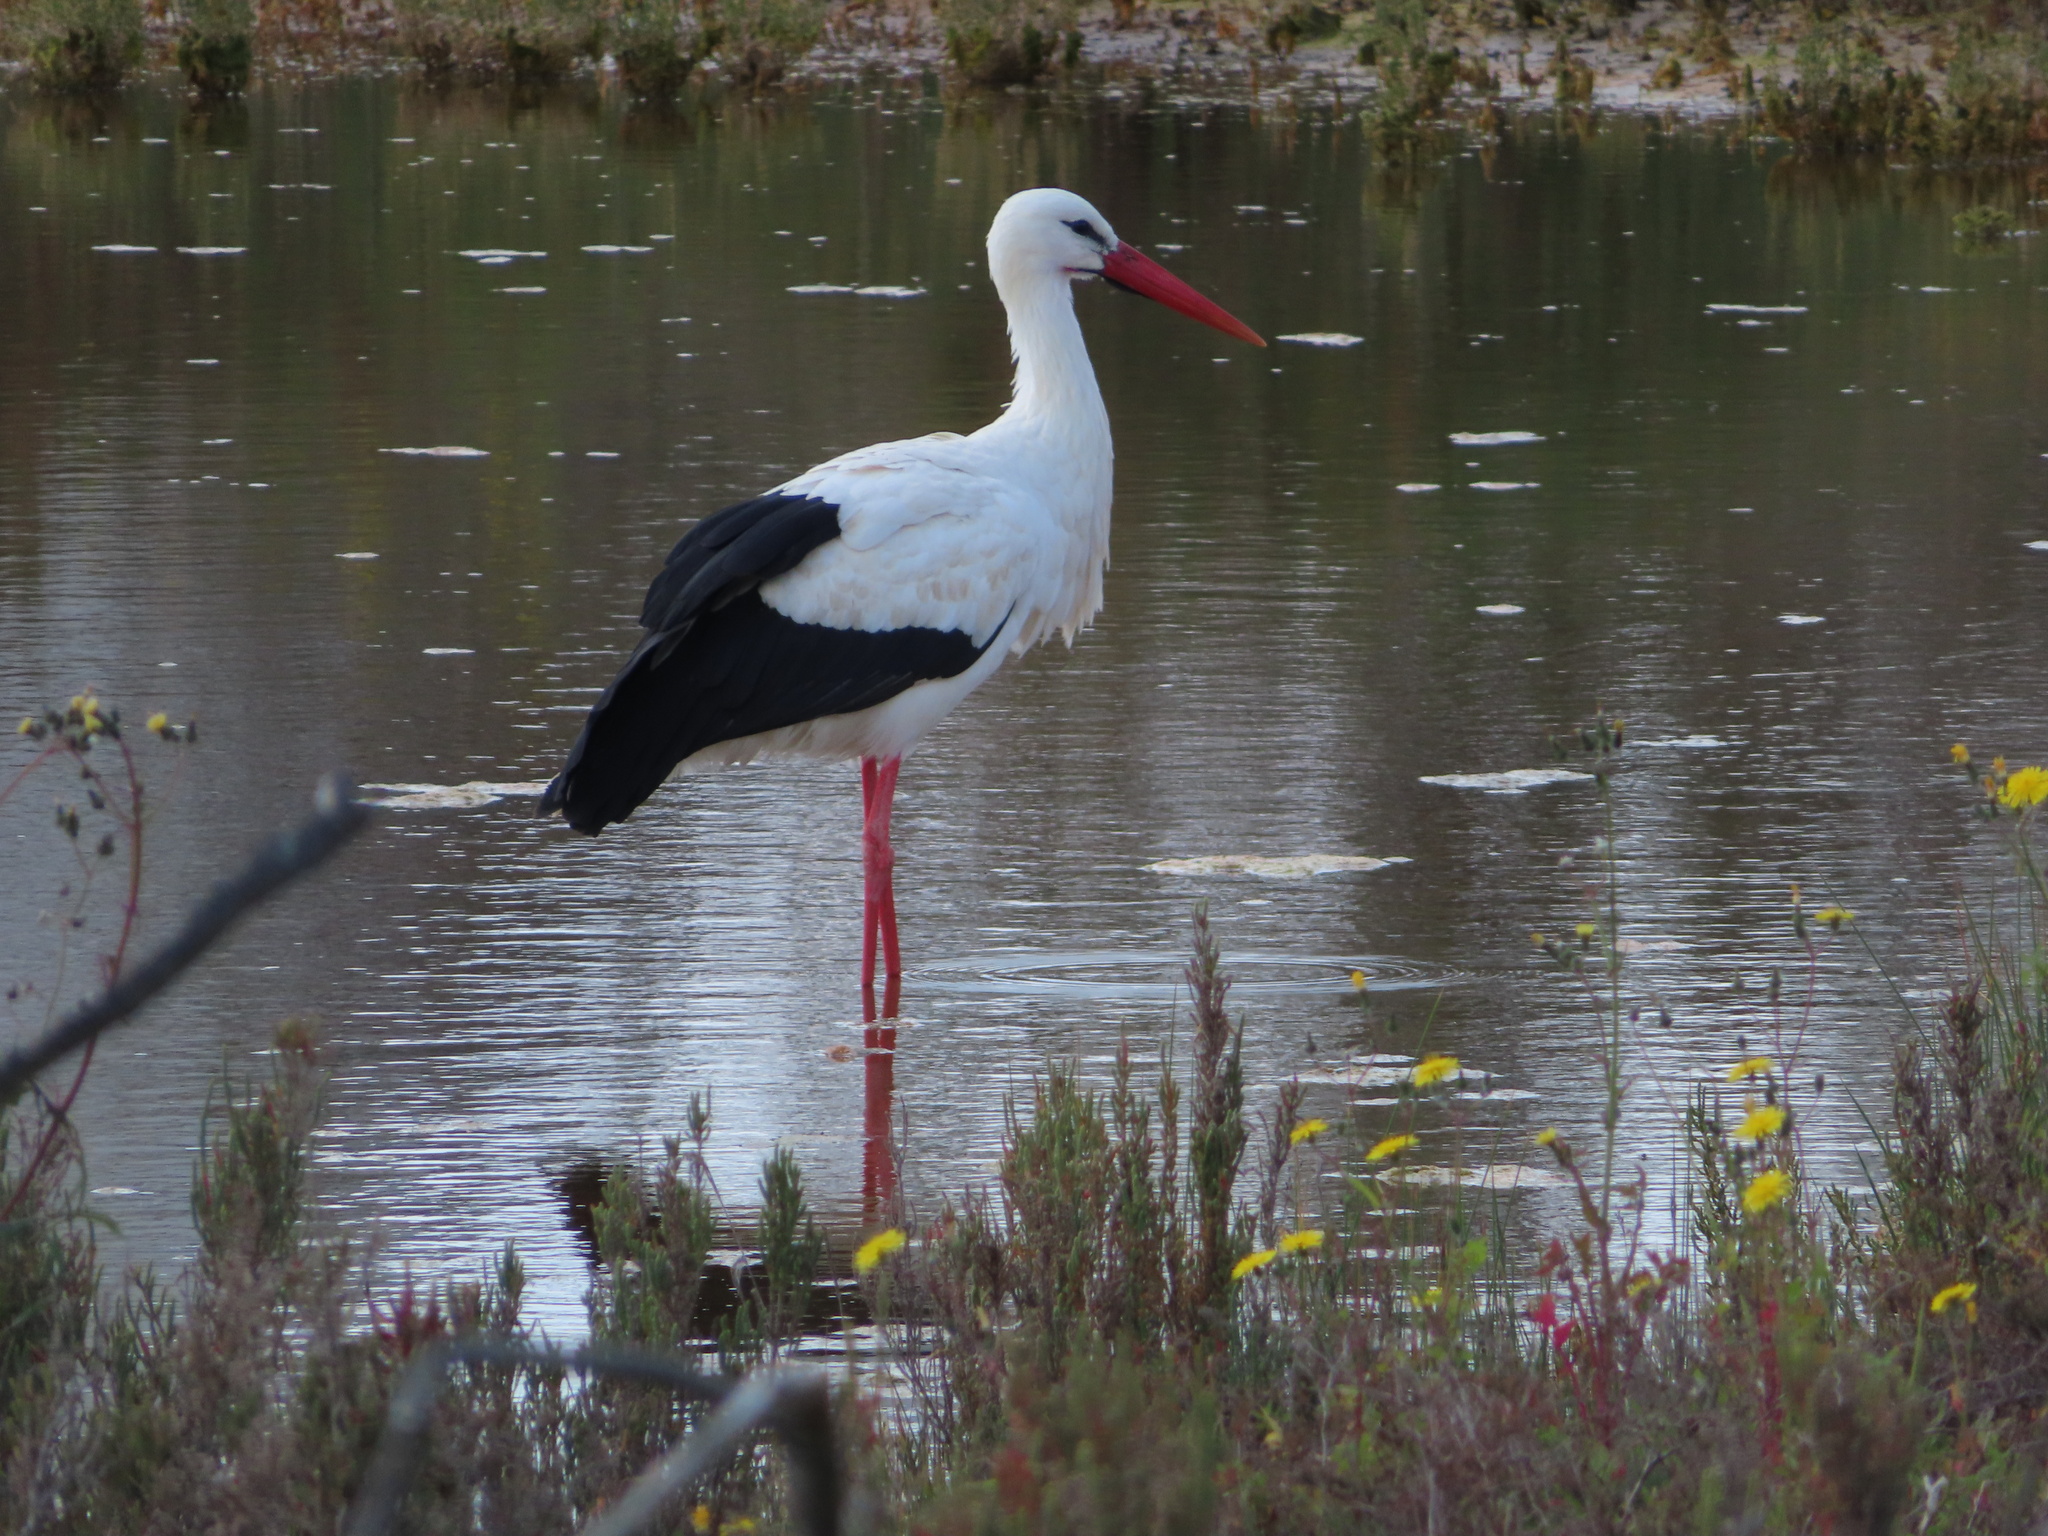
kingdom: Animalia
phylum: Chordata
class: Aves
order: Ciconiiformes
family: Ciconiidae
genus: Ciconia
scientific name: Ciconia ciconia
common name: White stork
